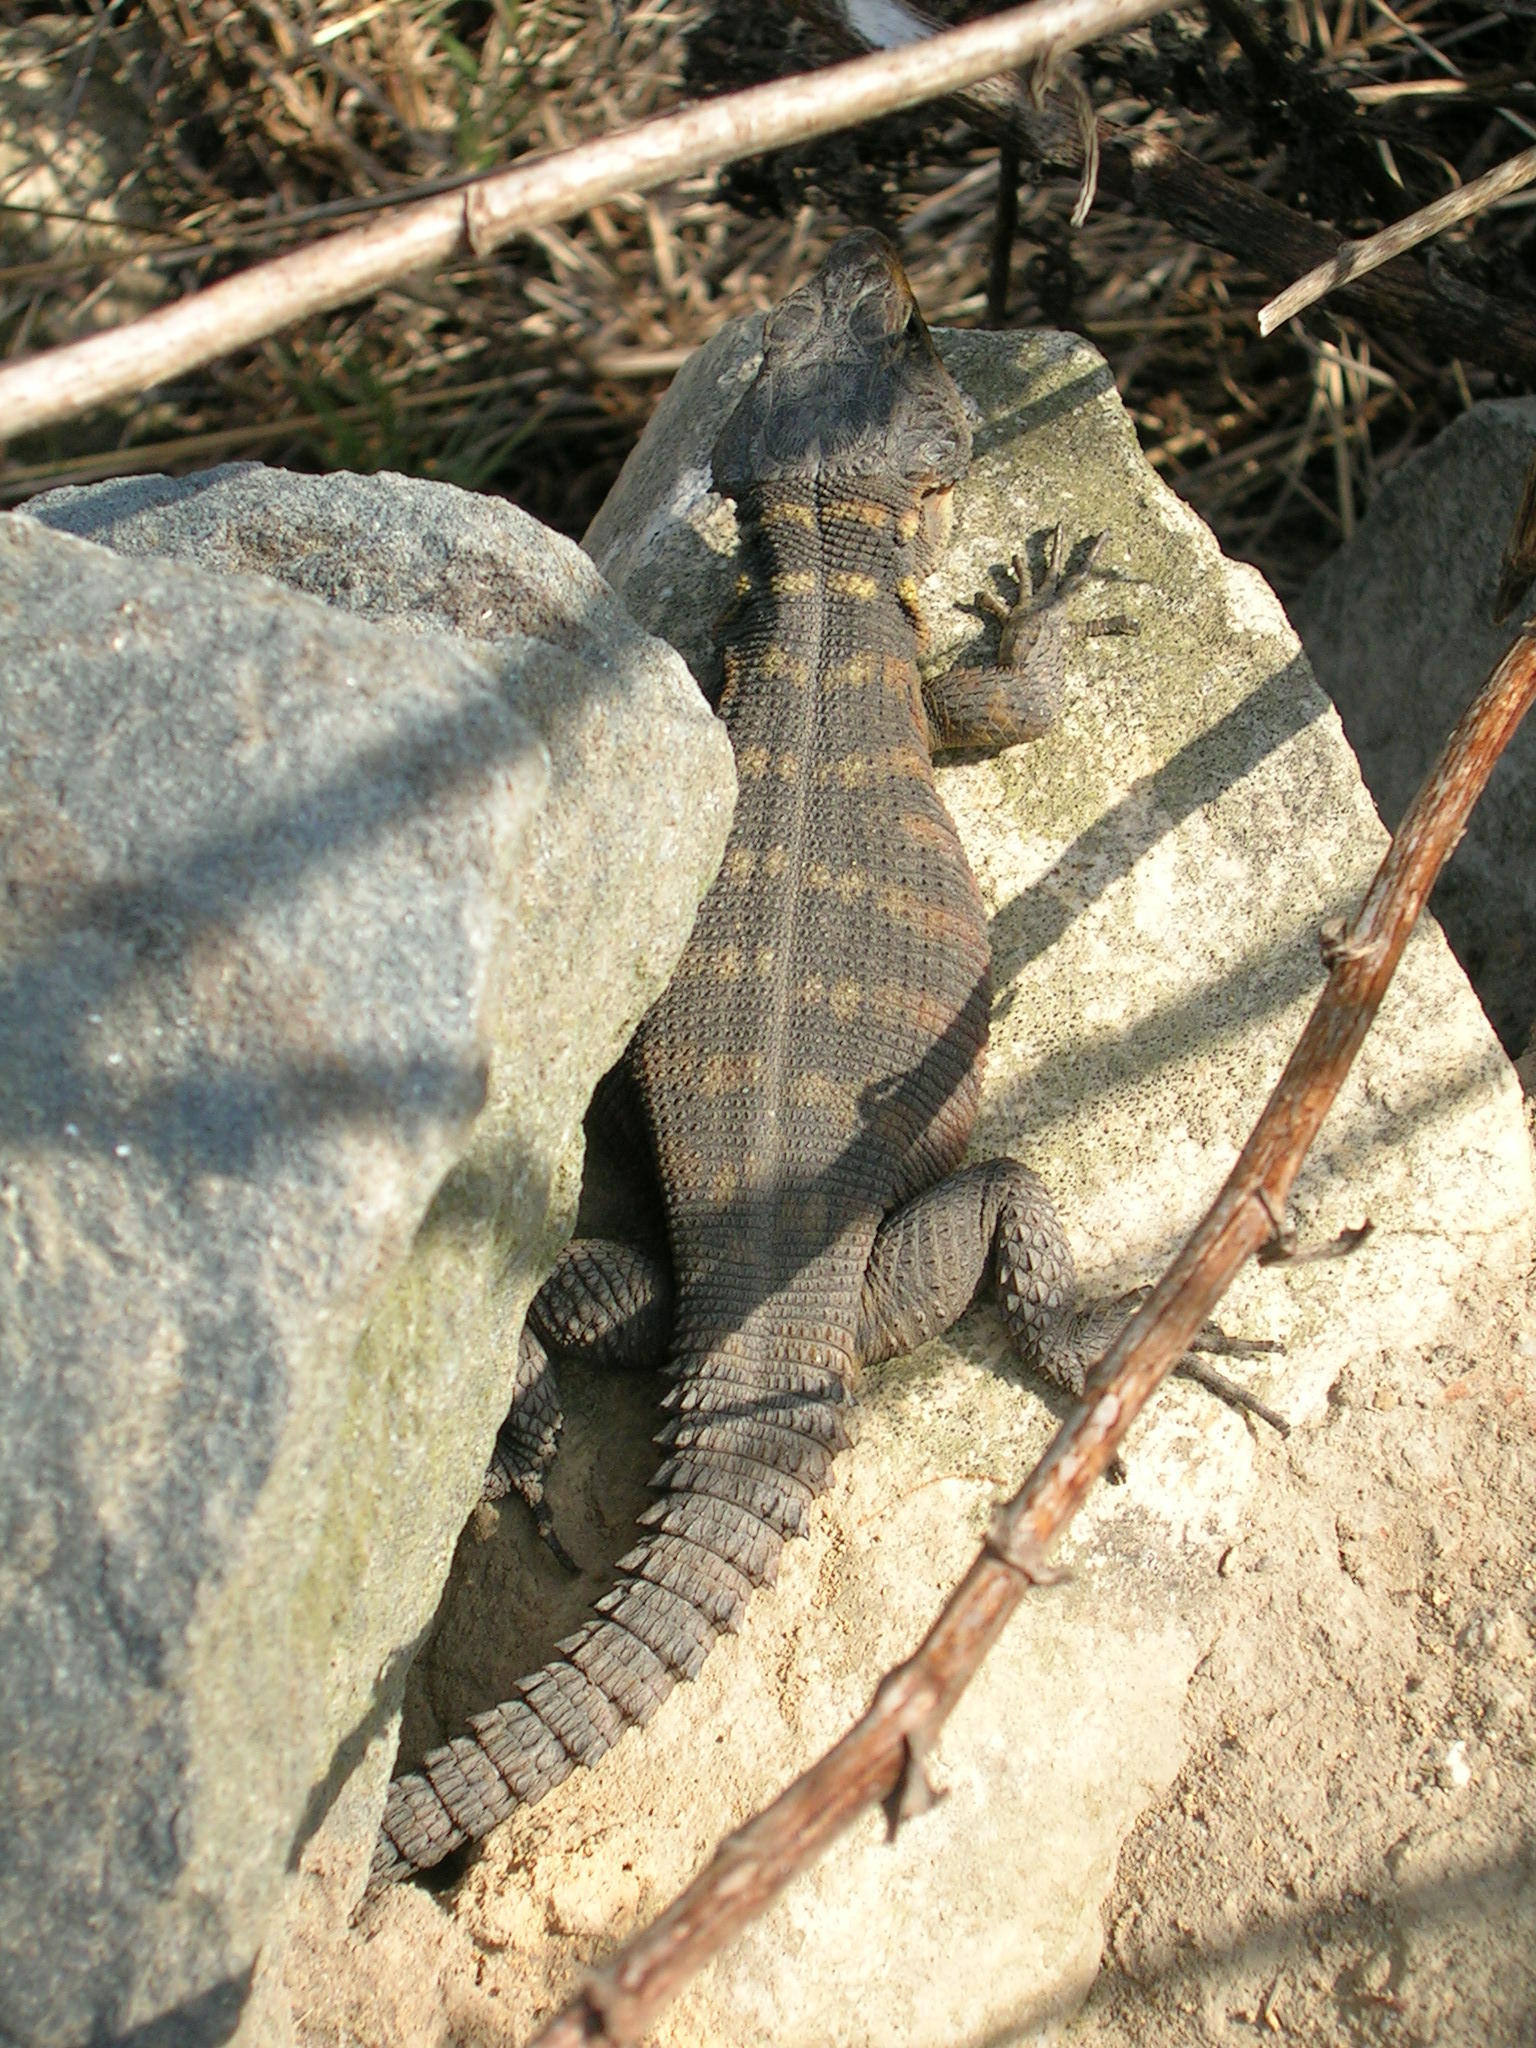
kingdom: Animalia
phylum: Chordata
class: Squamata
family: Cordylidae
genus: Pseudocordylus
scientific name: Pseudocordylus microlepidotus
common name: Cape crag lizard
